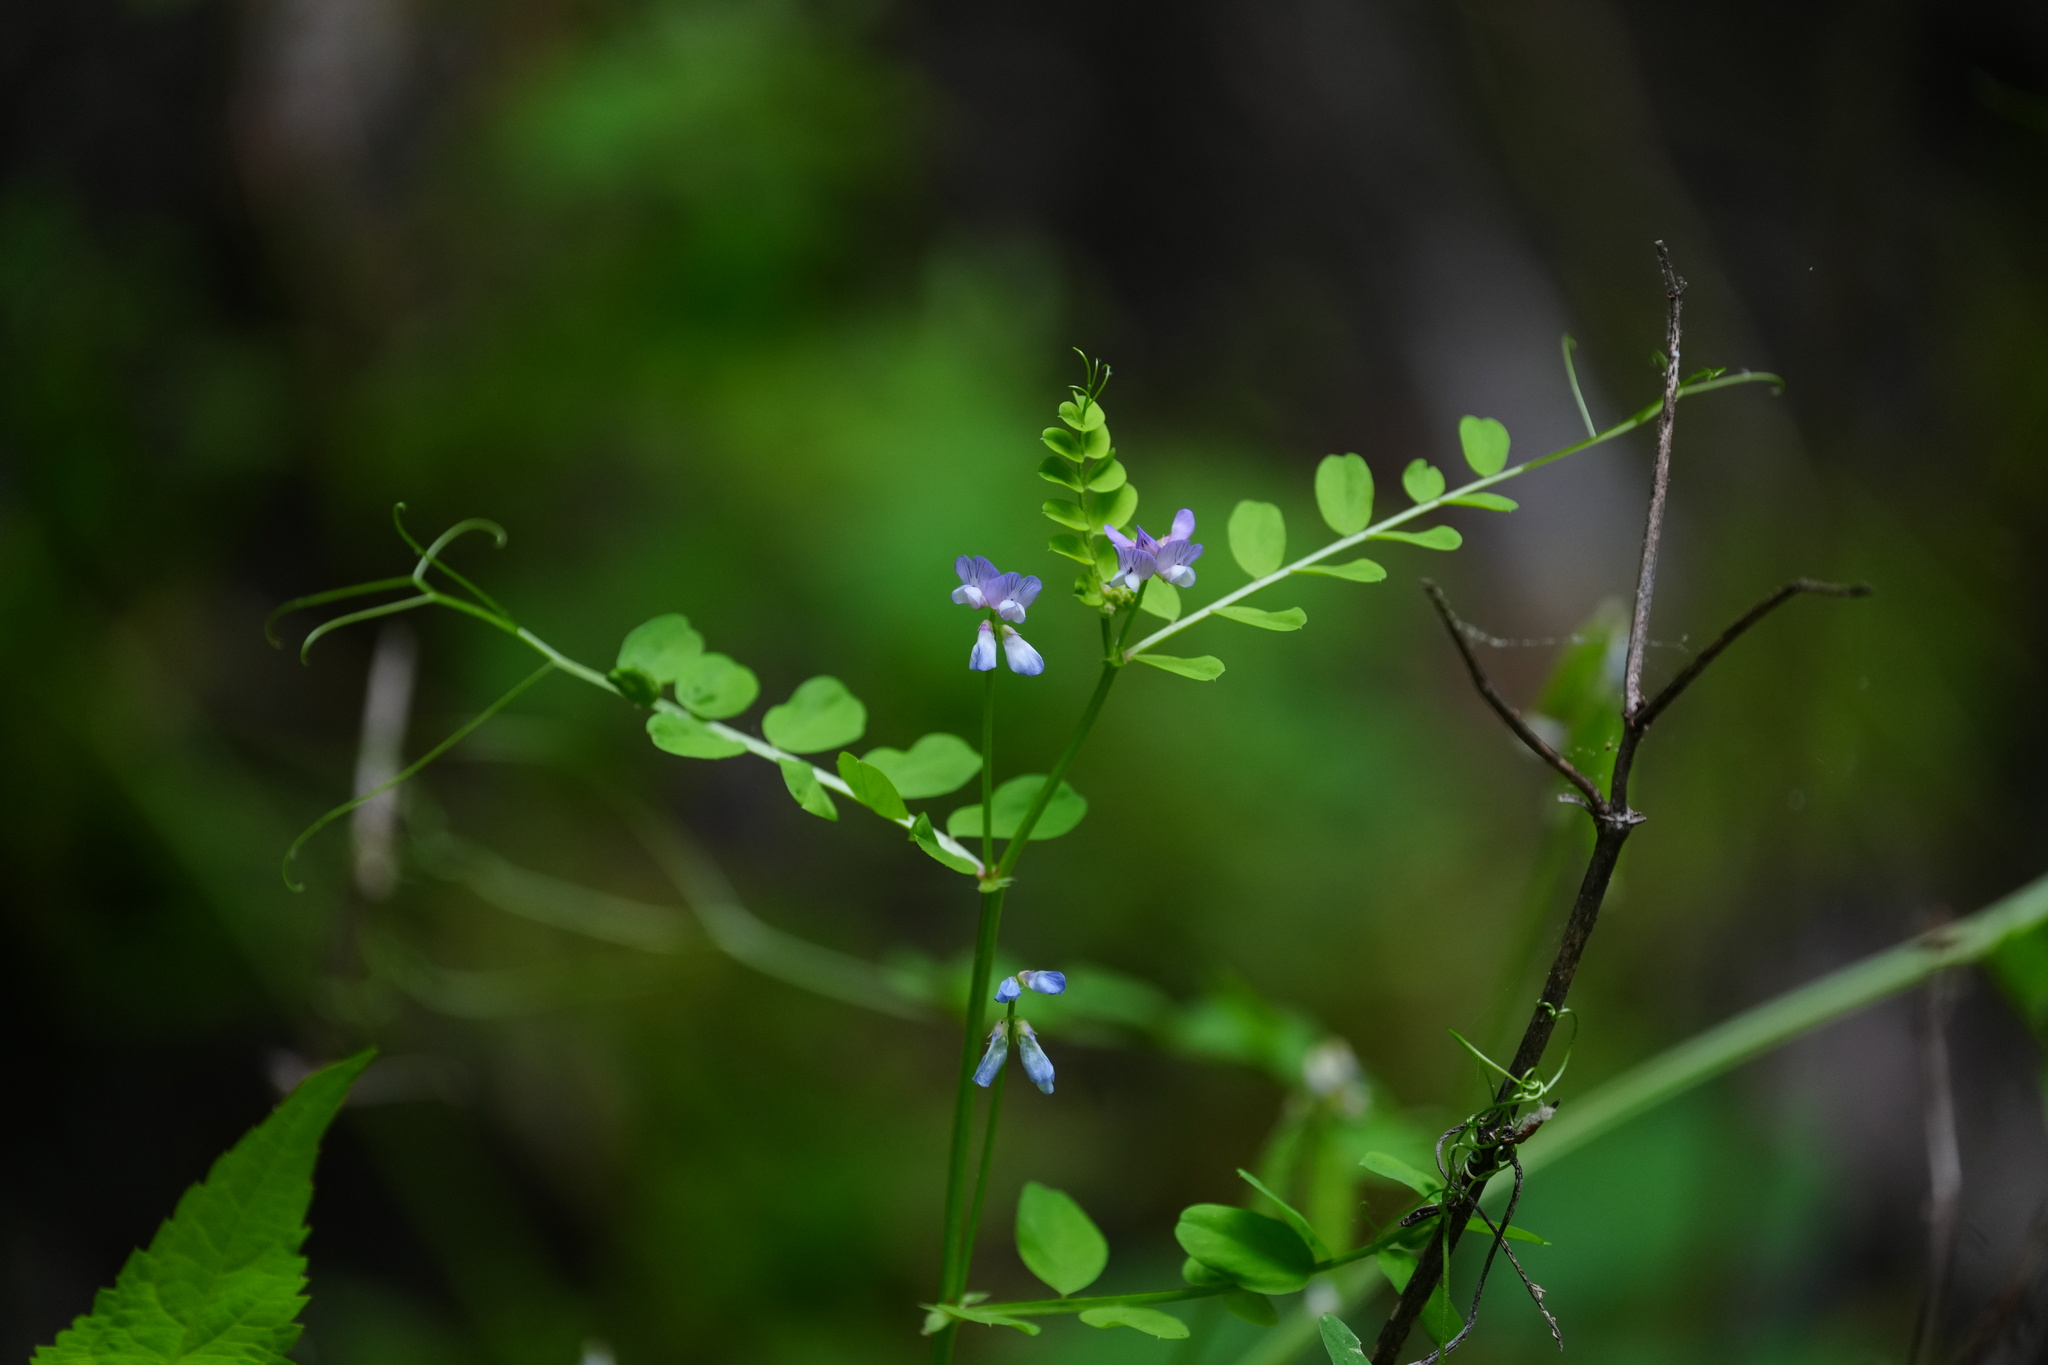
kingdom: Plantae
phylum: Tracheophyta
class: Magnoliopsida
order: Fabales
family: Fabaceae
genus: Vicia
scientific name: Vicia ludoviciana
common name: Louisiana vetch
